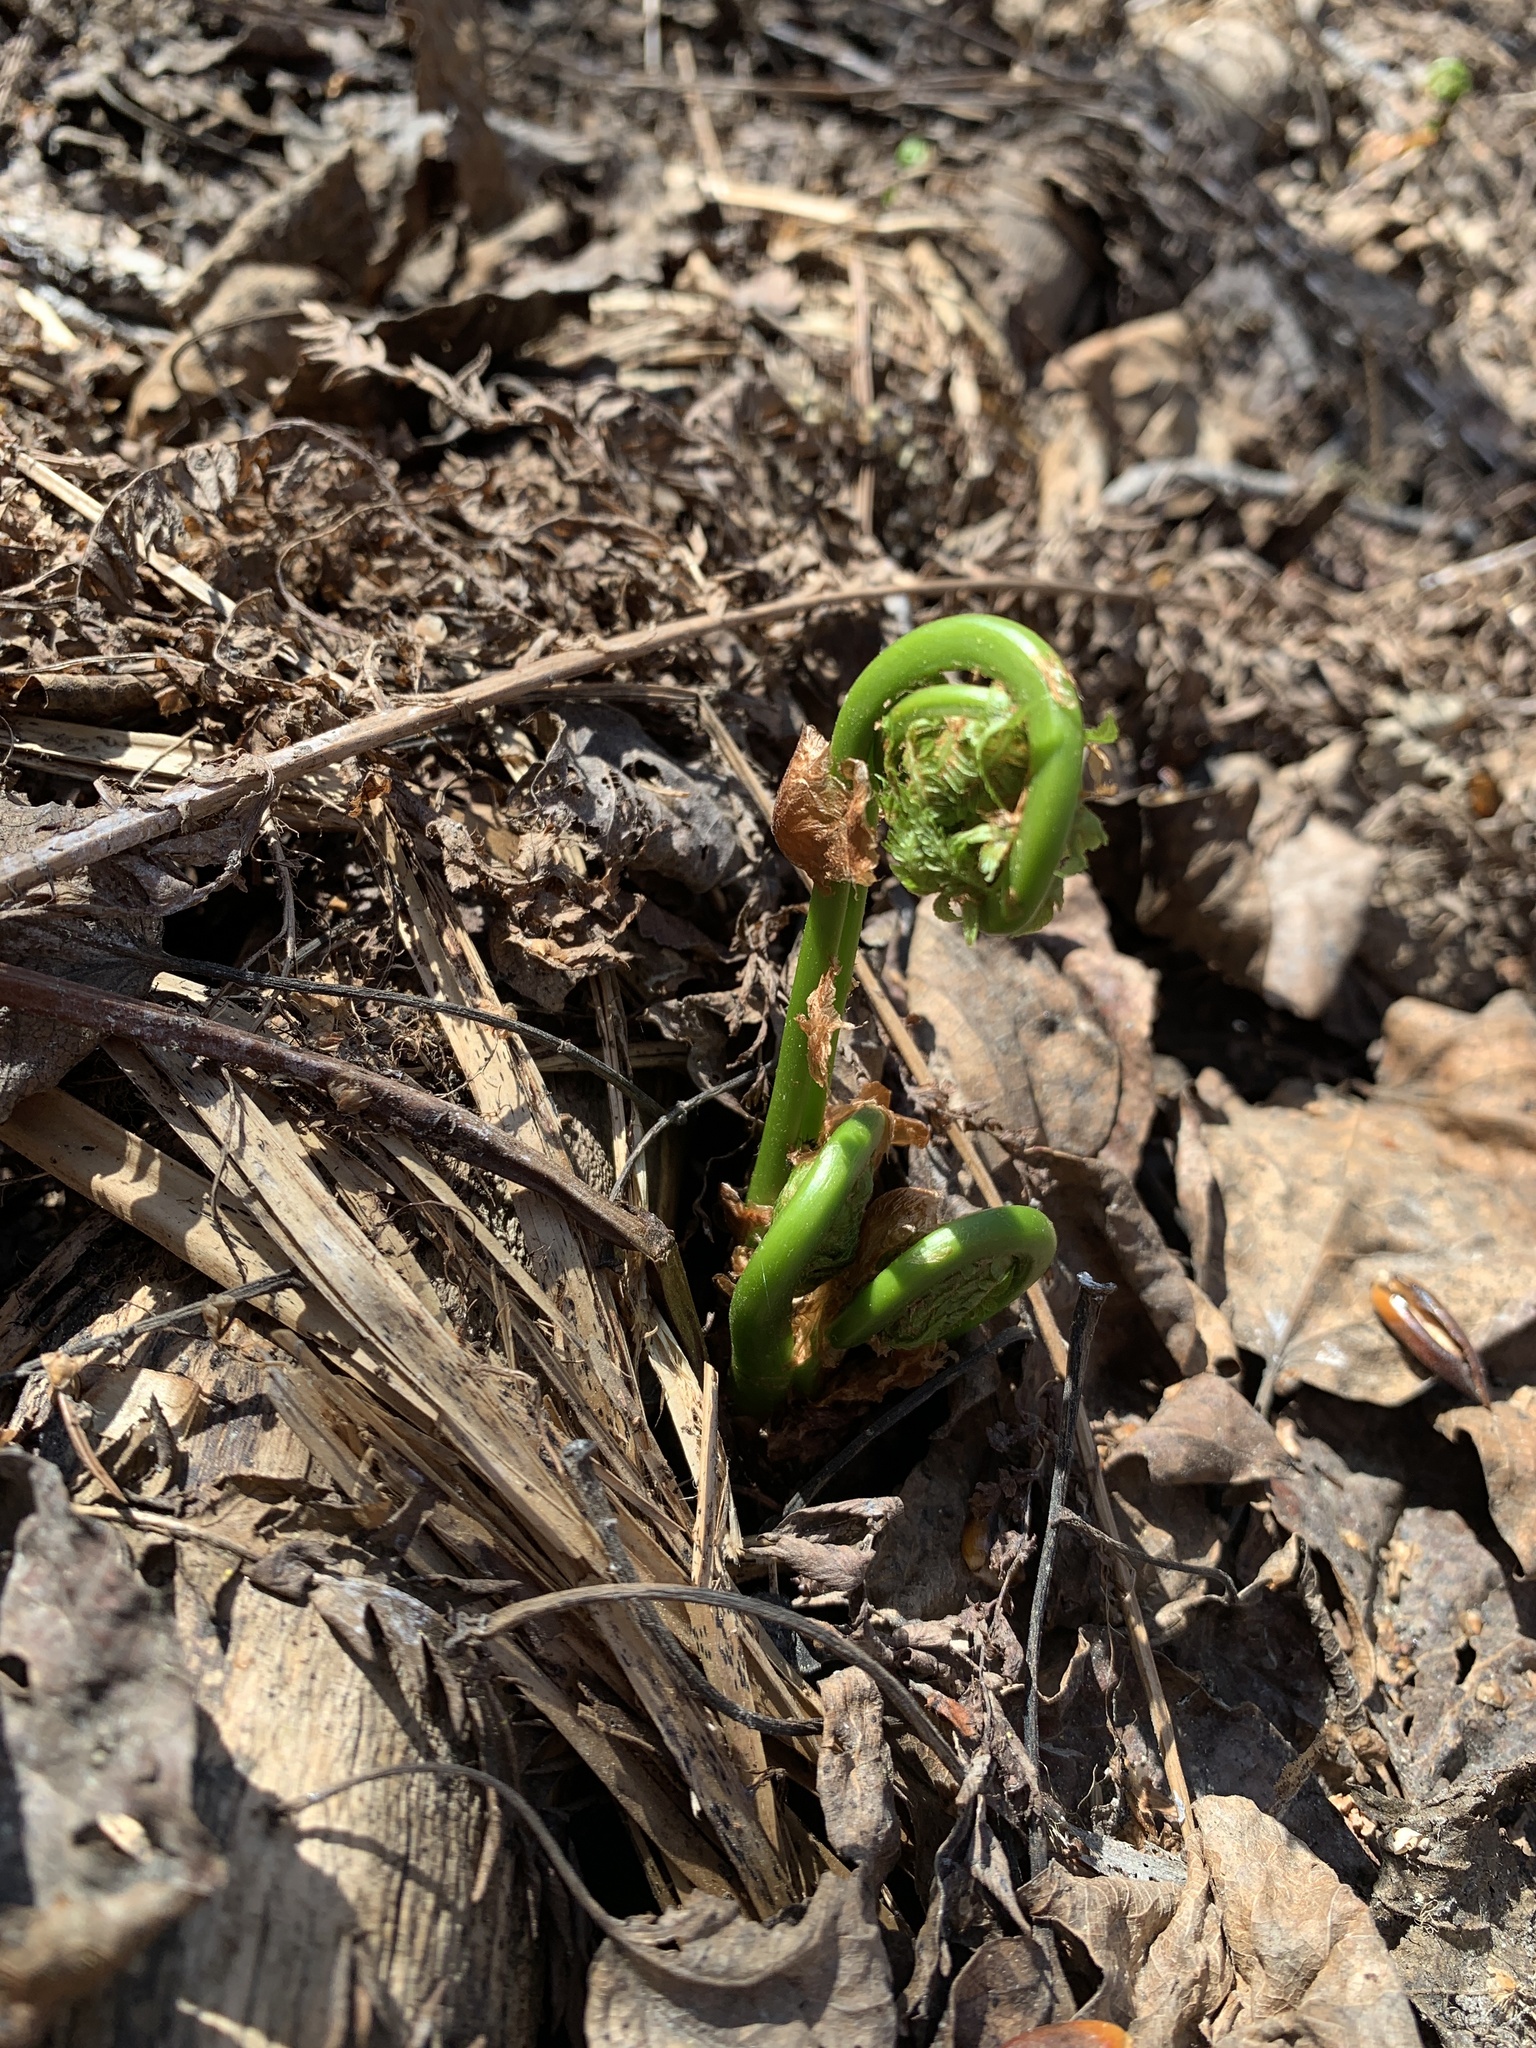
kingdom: Plantae
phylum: Tracheophyta
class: Polypodiopsida
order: Polypodiales
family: Onocleaceae
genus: Matteuccia
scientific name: Matteuccia struthiopteris
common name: Ostrich fern
